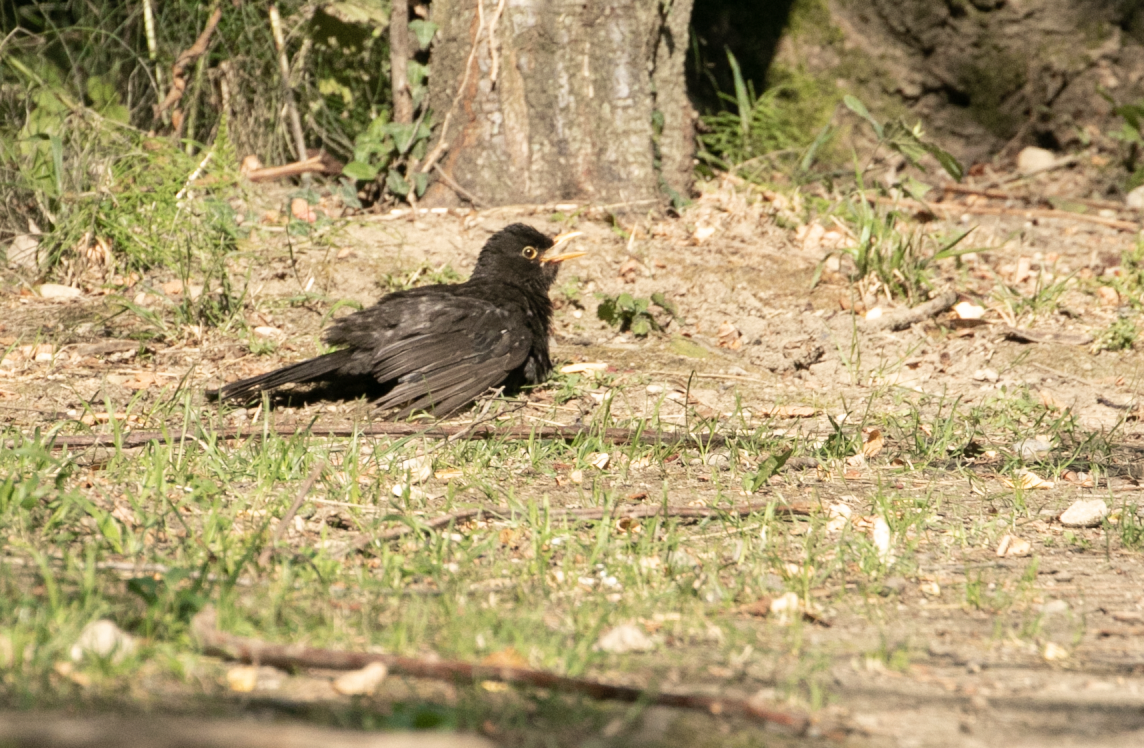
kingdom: Animalia
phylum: Chordata
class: Aves
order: Passeriformes
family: Turdidae
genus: Turdus
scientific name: Turdus merula
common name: Common blackbird
